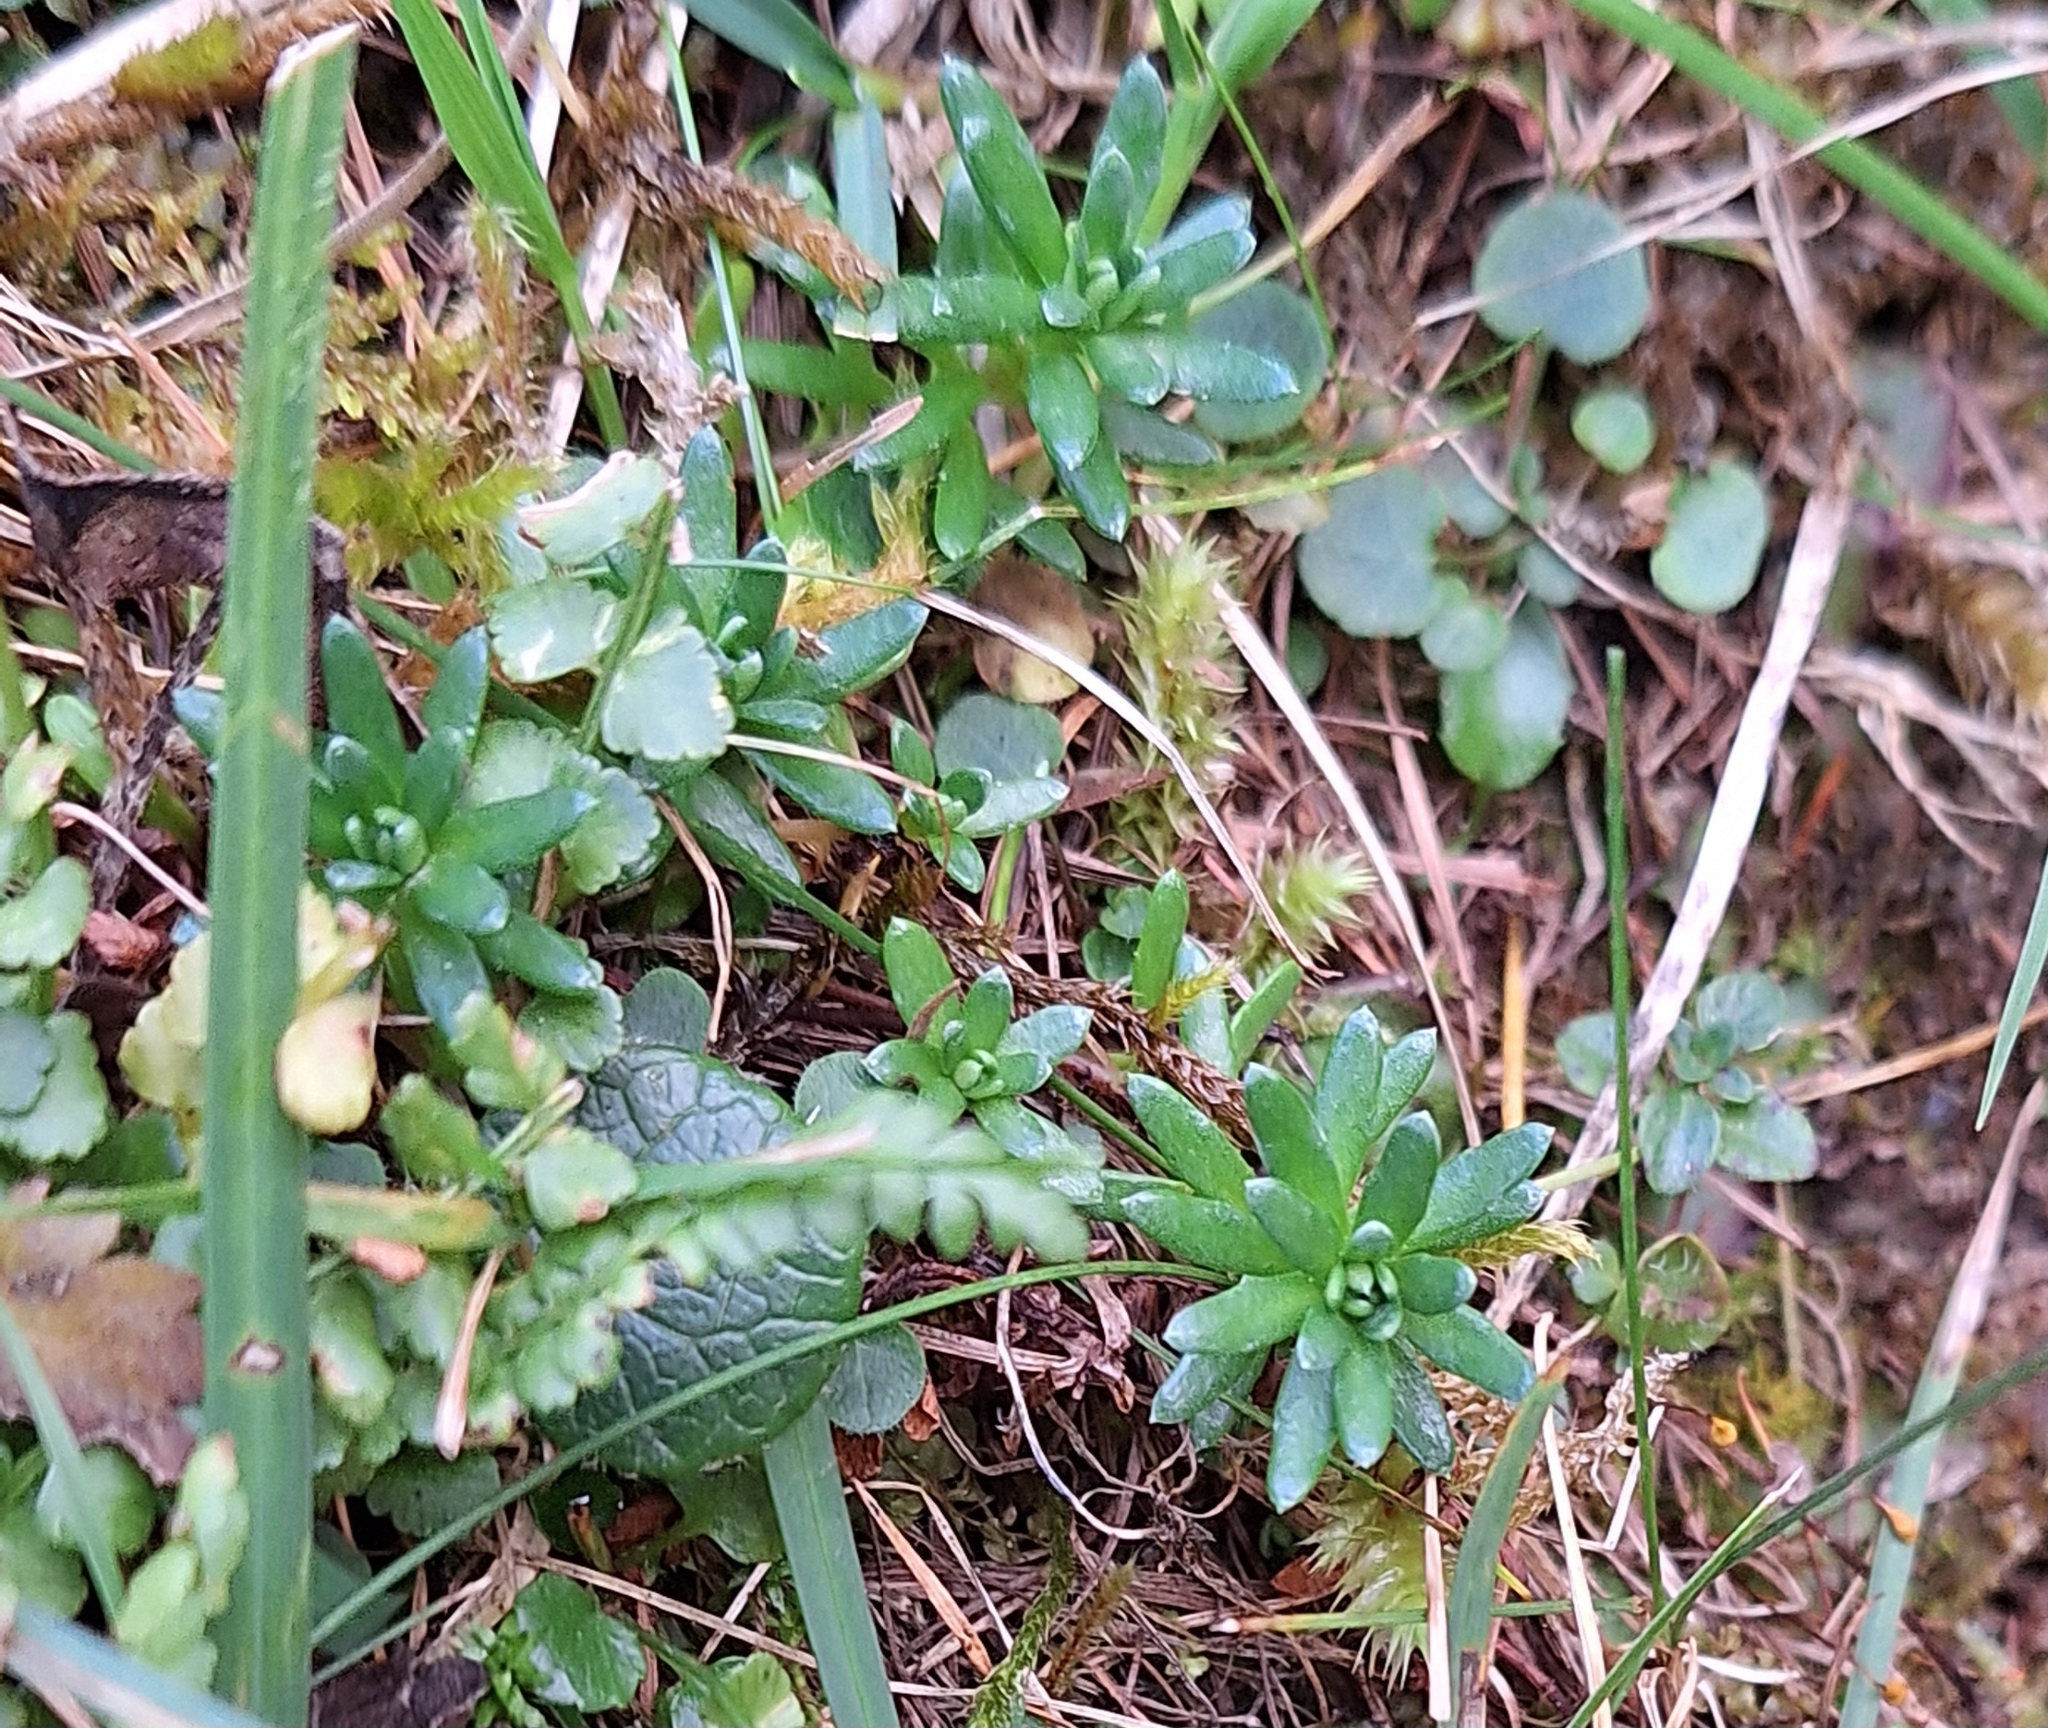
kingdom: Plantae
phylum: Tracheophyta
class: Magnoliopsida
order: Saxifragales
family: Saxifragaceae
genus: Saxifraga
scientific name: Saxifraga aizoides
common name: Yellow mountain saxifrage
